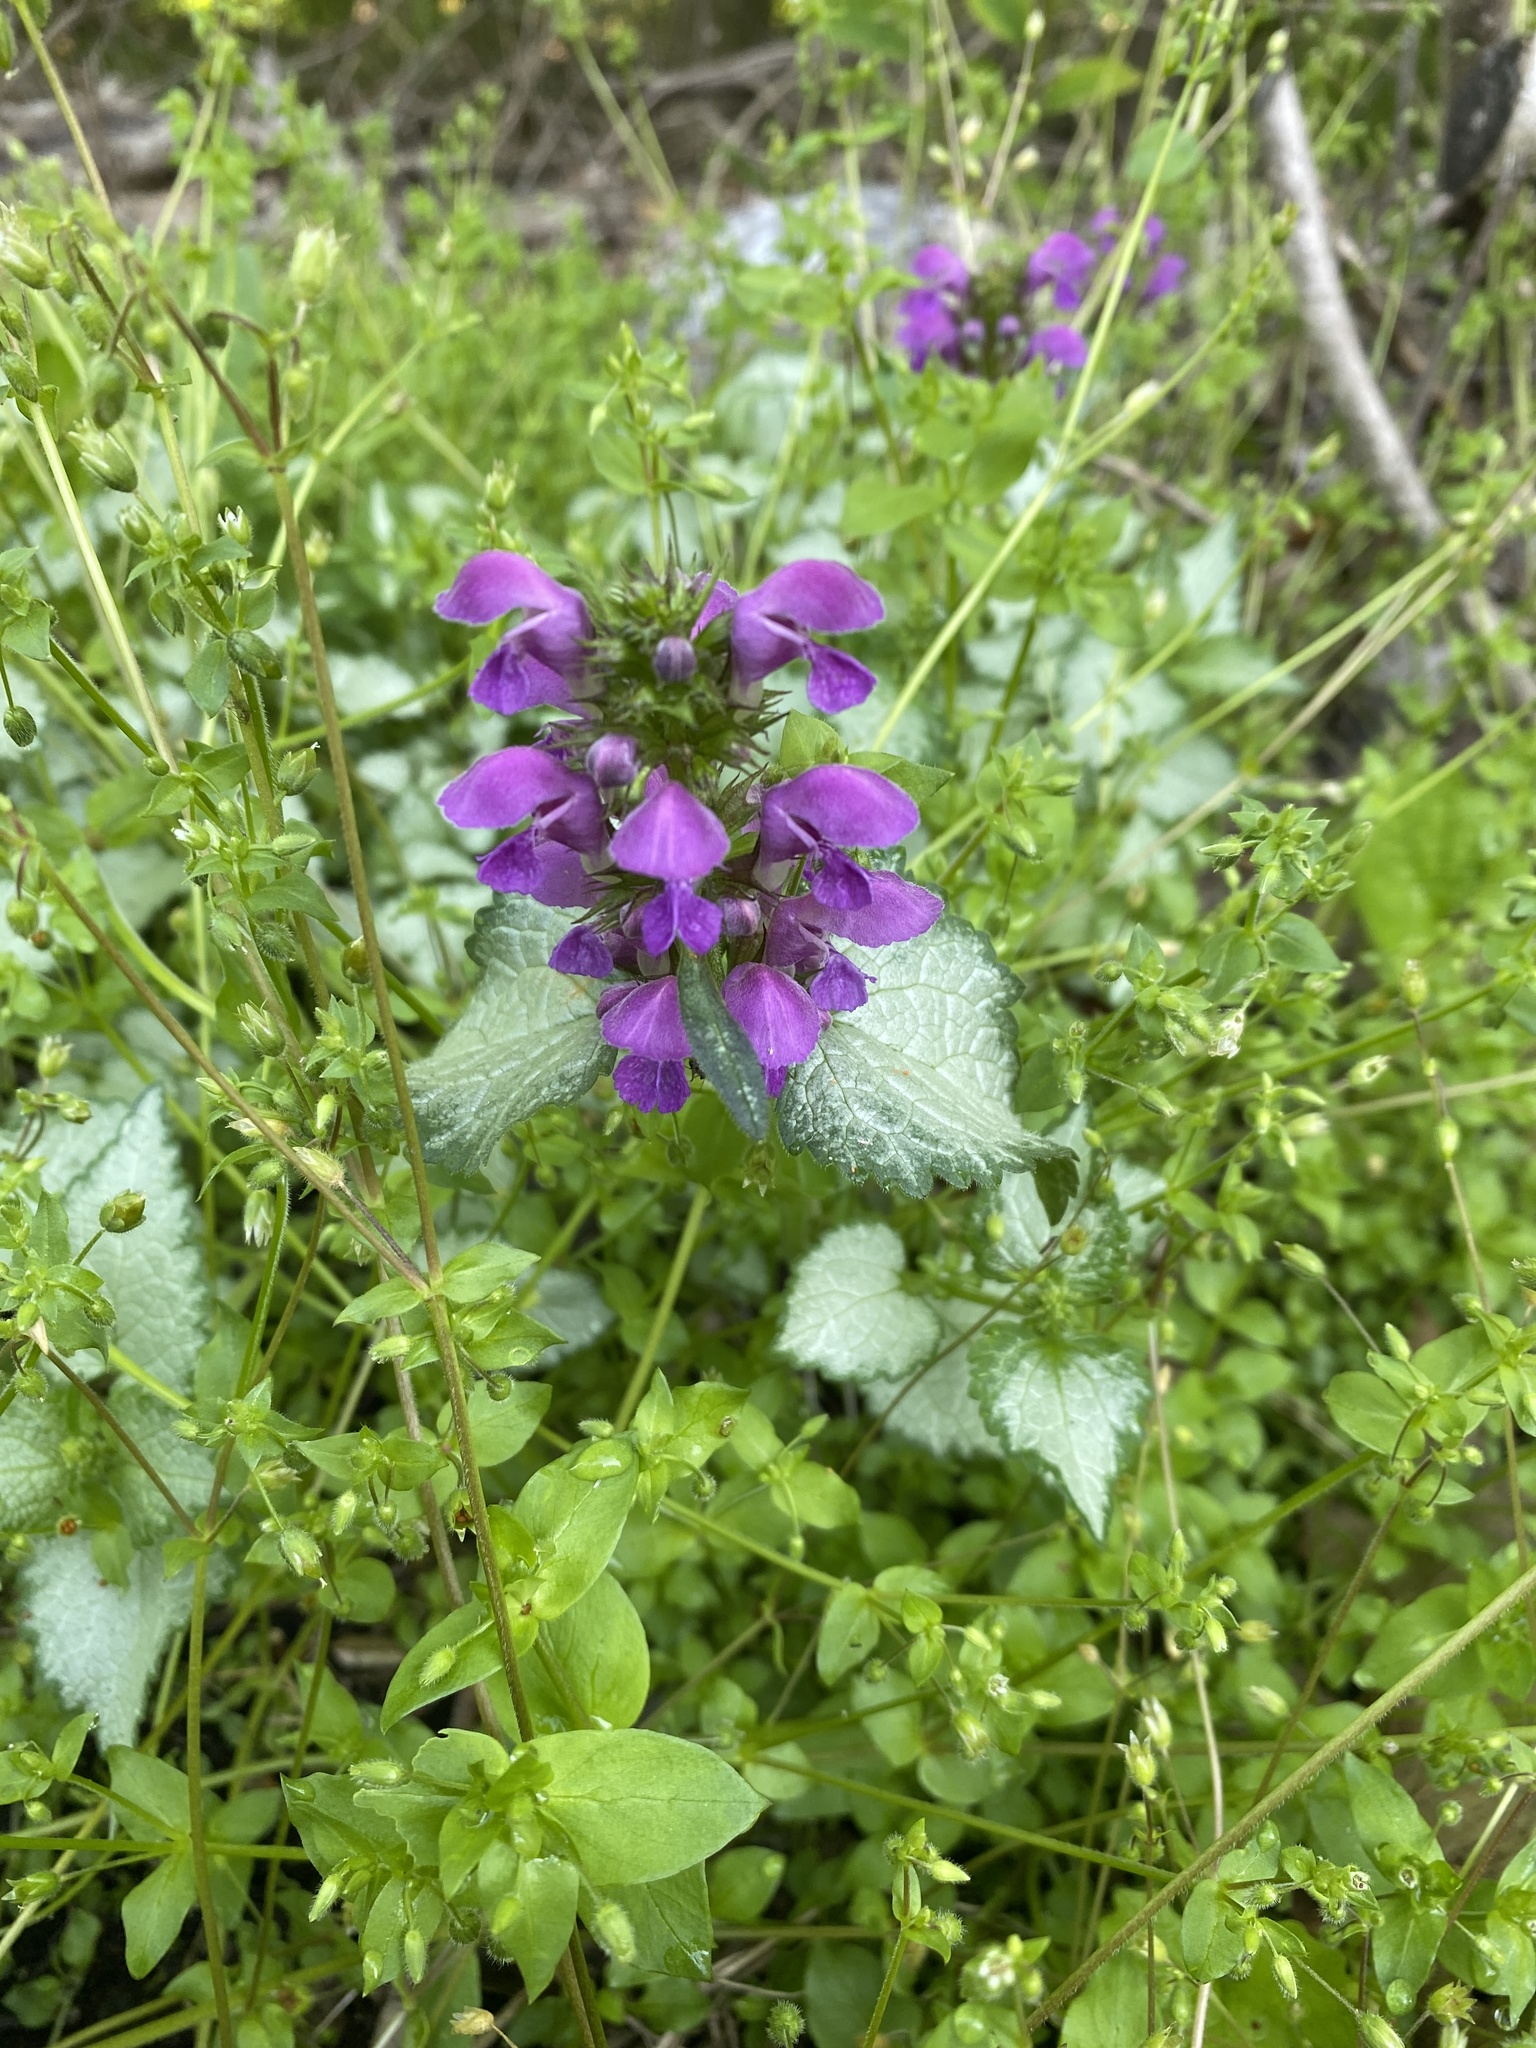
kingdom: Plantae
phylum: Tracheophyta
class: Magnoliopsida
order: Lamiales
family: Lamiaceae
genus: Lamium
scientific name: Lamium maculatum
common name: Spotted dead-nettle
